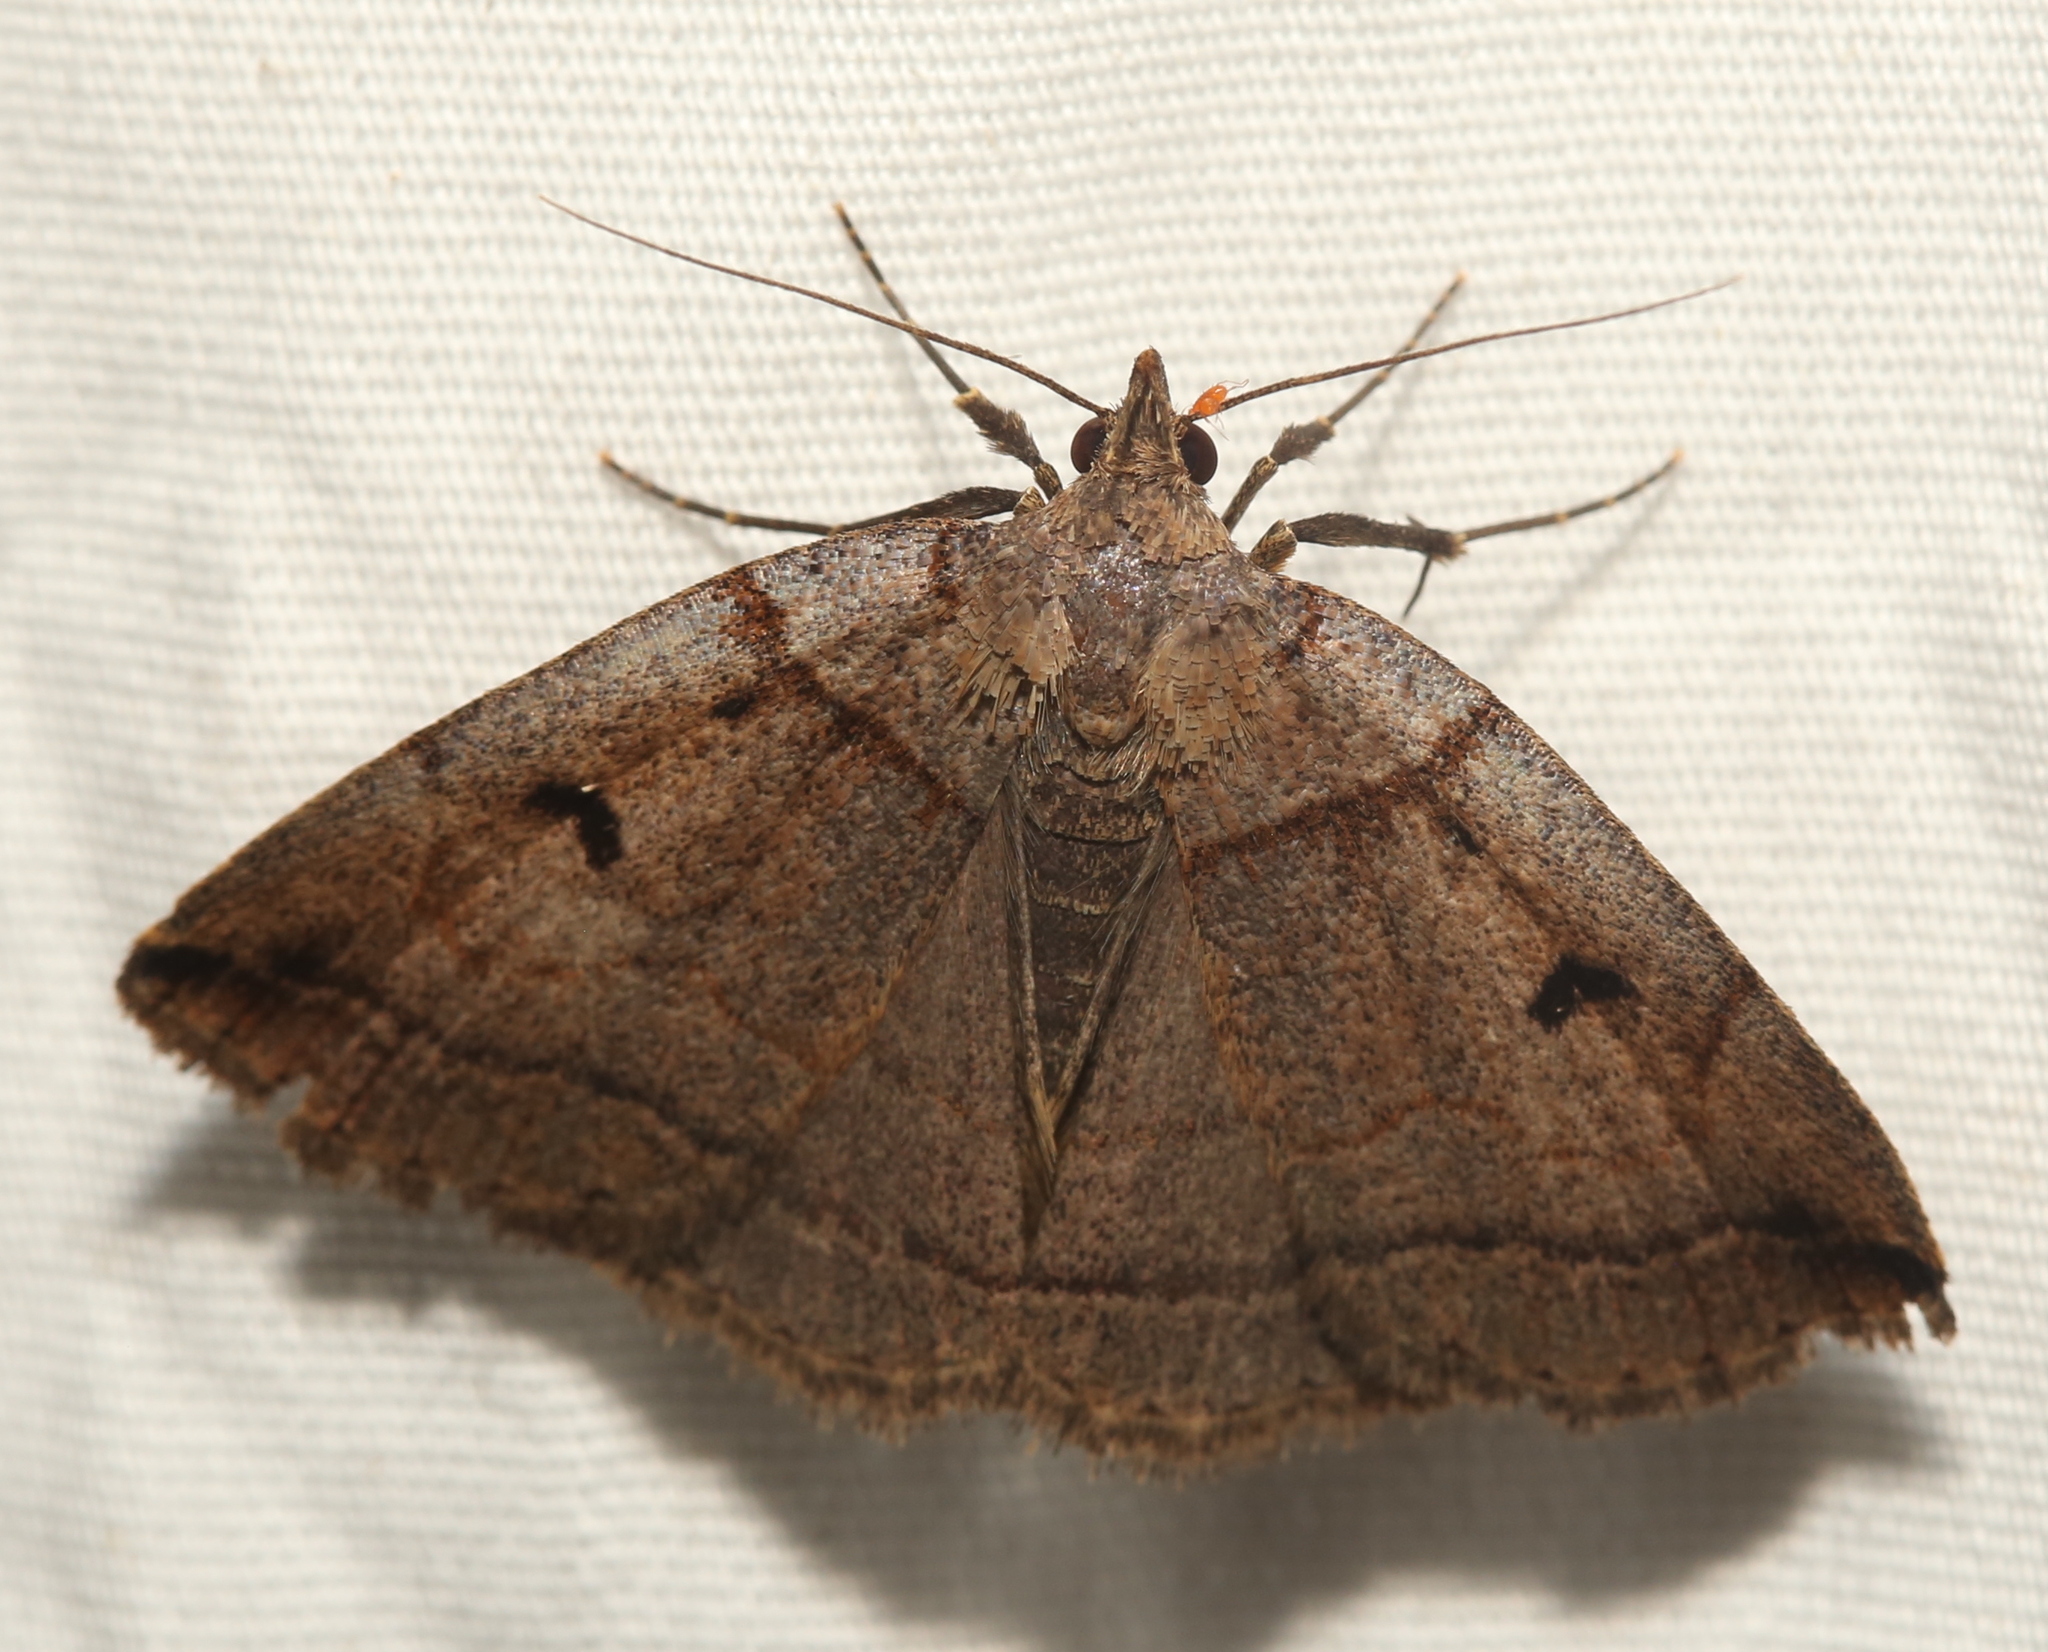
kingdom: Animalia
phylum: Arthropoda
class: Insecta
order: Lepidoptera
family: Erebidae
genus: Zanclognatha
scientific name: Zanclognatha laevigata
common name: Variable fan-foot
